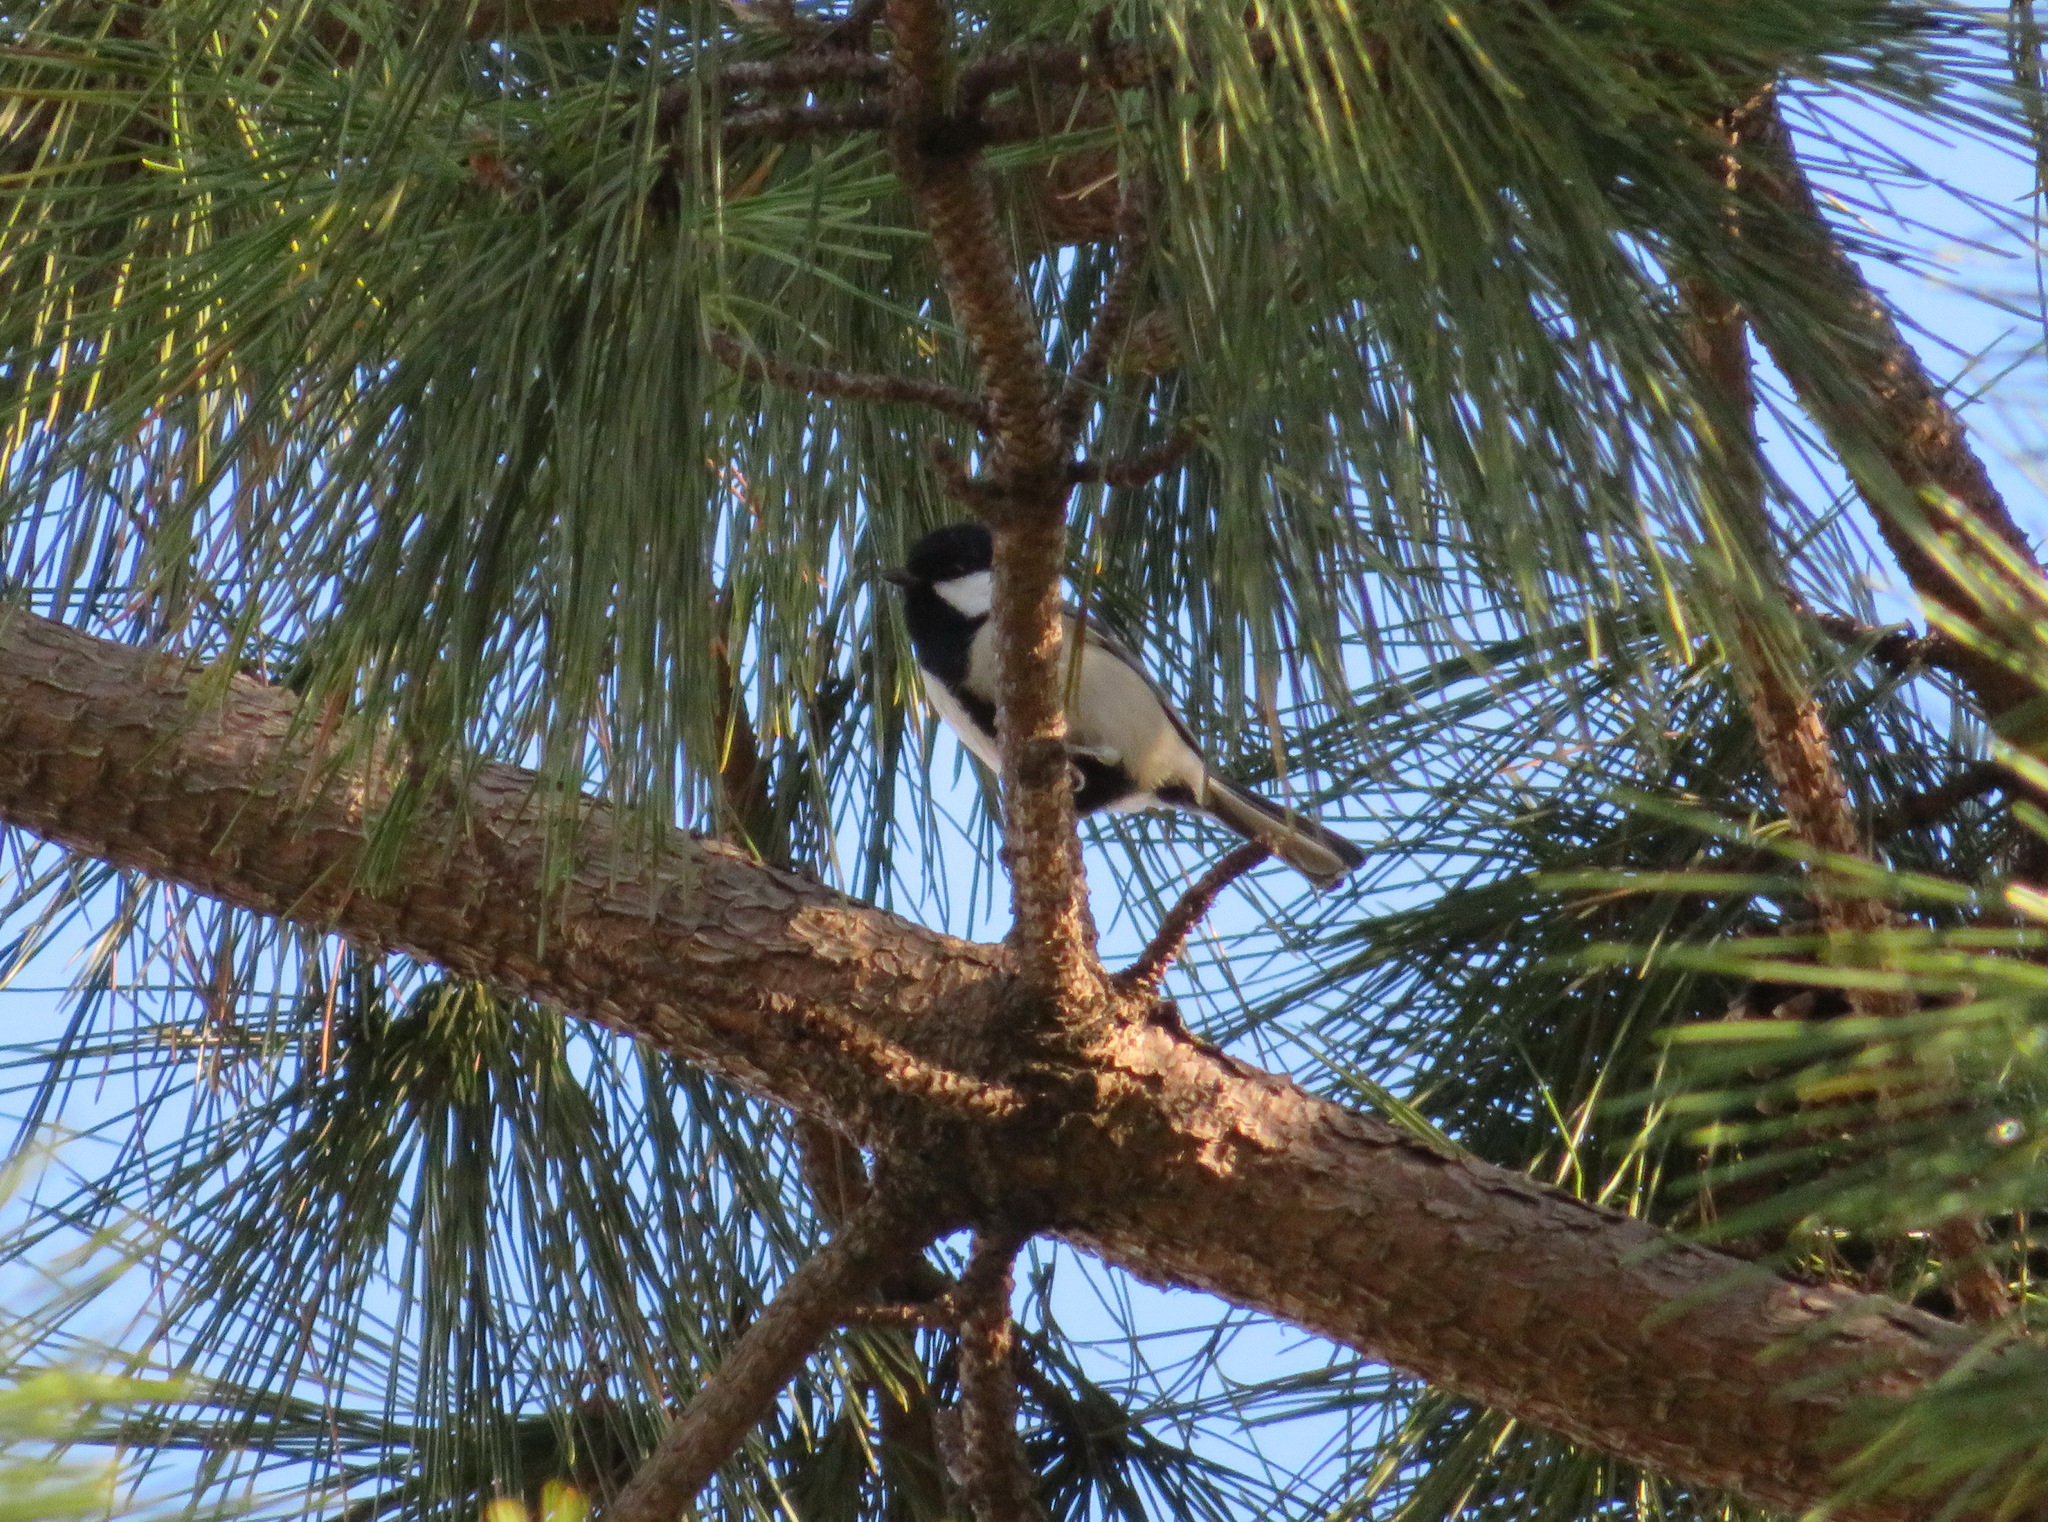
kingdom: Animalia
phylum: Chordata
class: Aves
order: Passeriformes
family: Paridae
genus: Parus
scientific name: Parus minor
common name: Japanese tit
